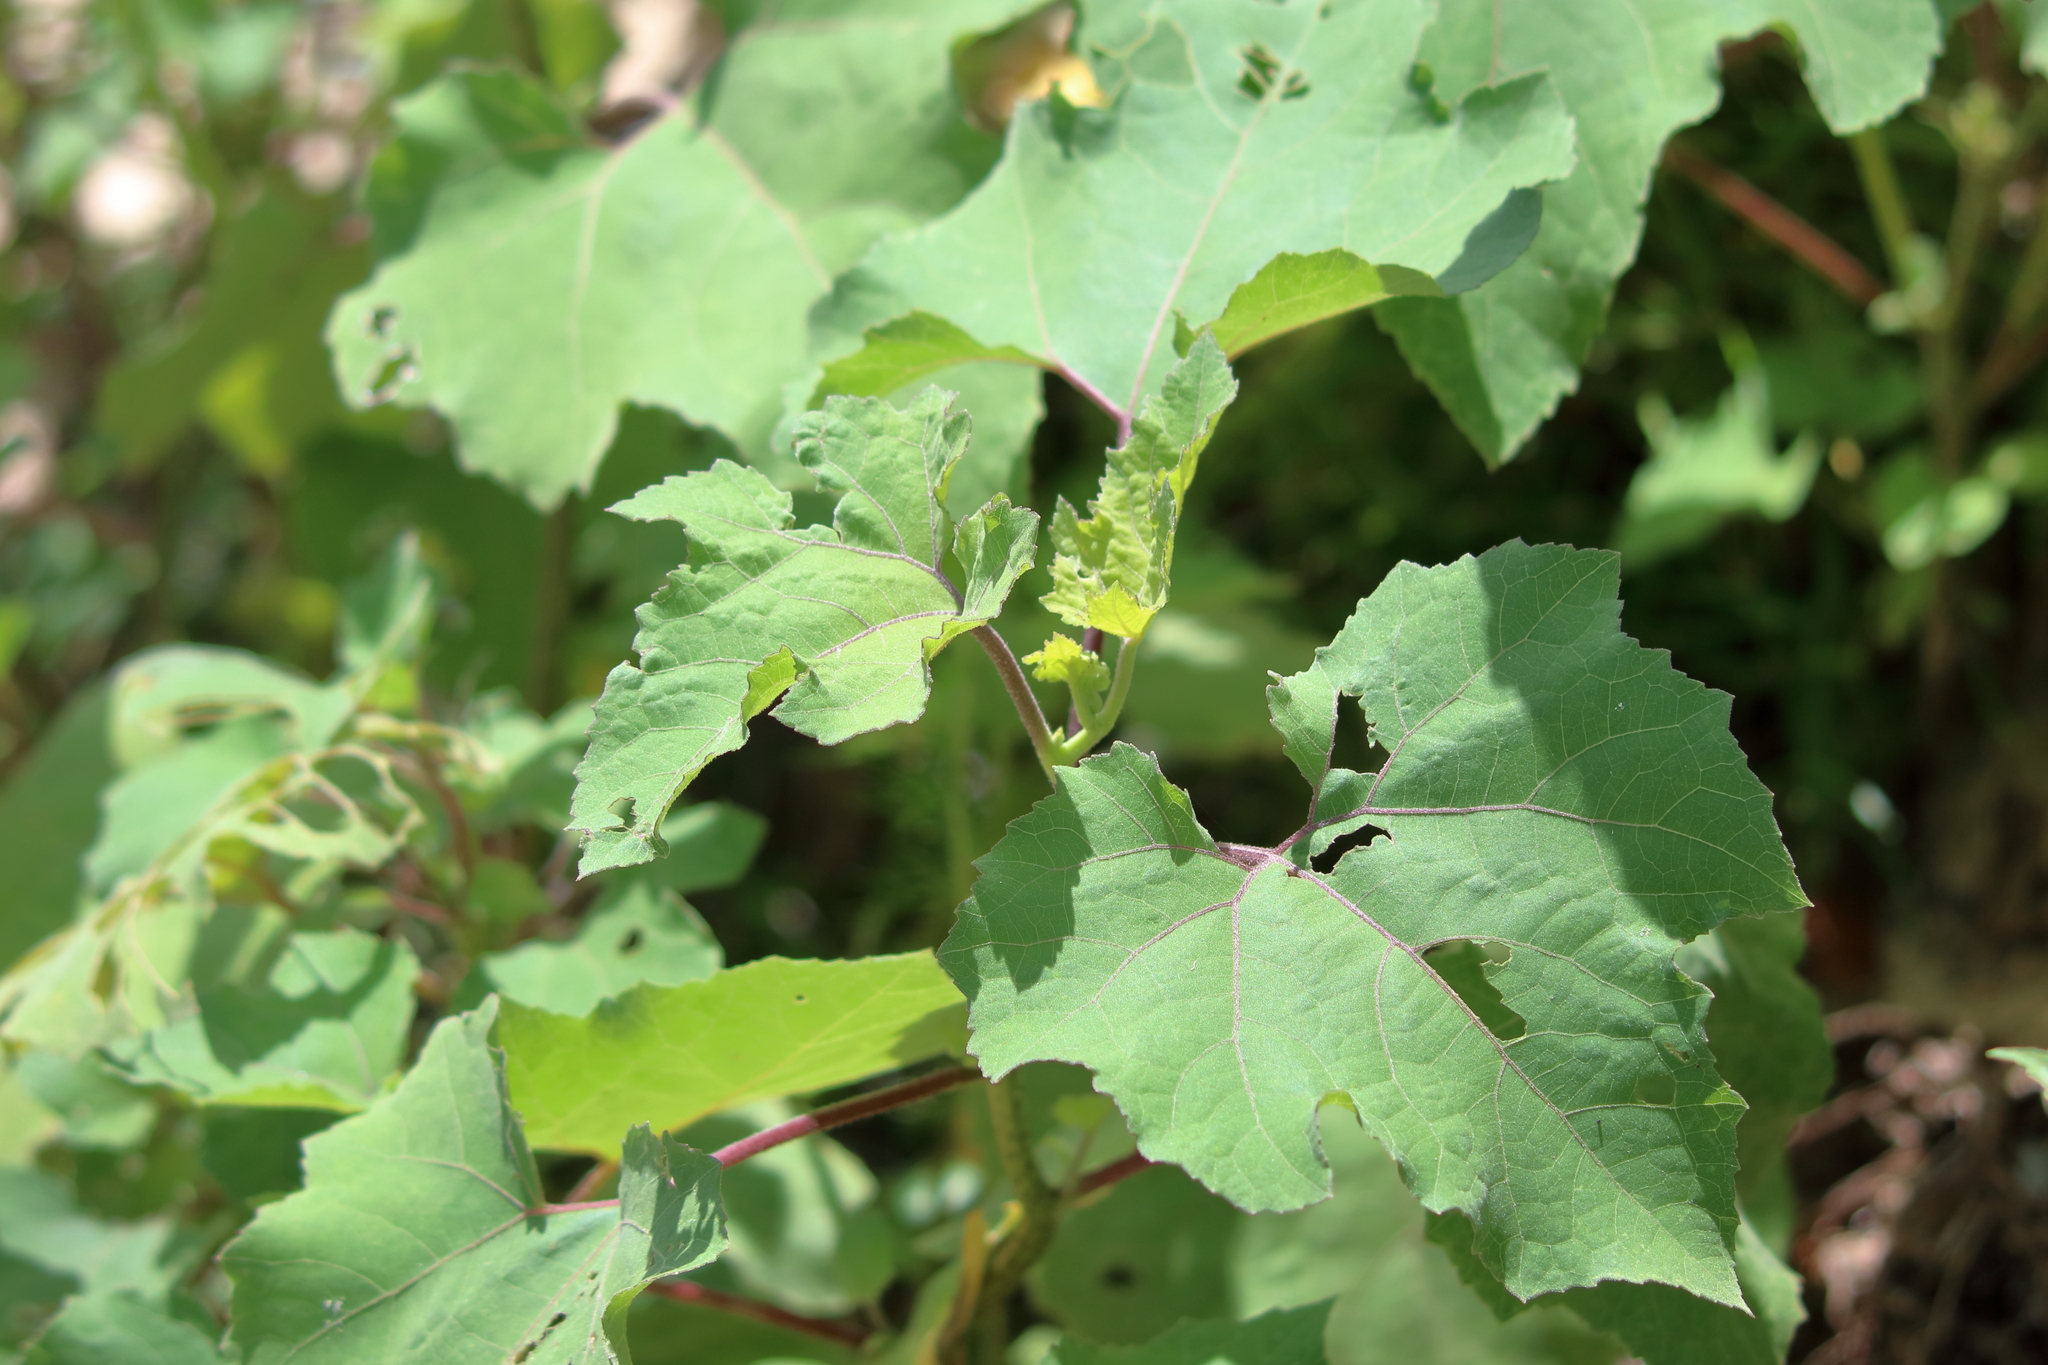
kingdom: Plantae
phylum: Tracheophyta
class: Magnoliopsida
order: Asterales
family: Asteraceae
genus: Xanthium
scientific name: Xanthium strumarium
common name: Rough cocklebur
